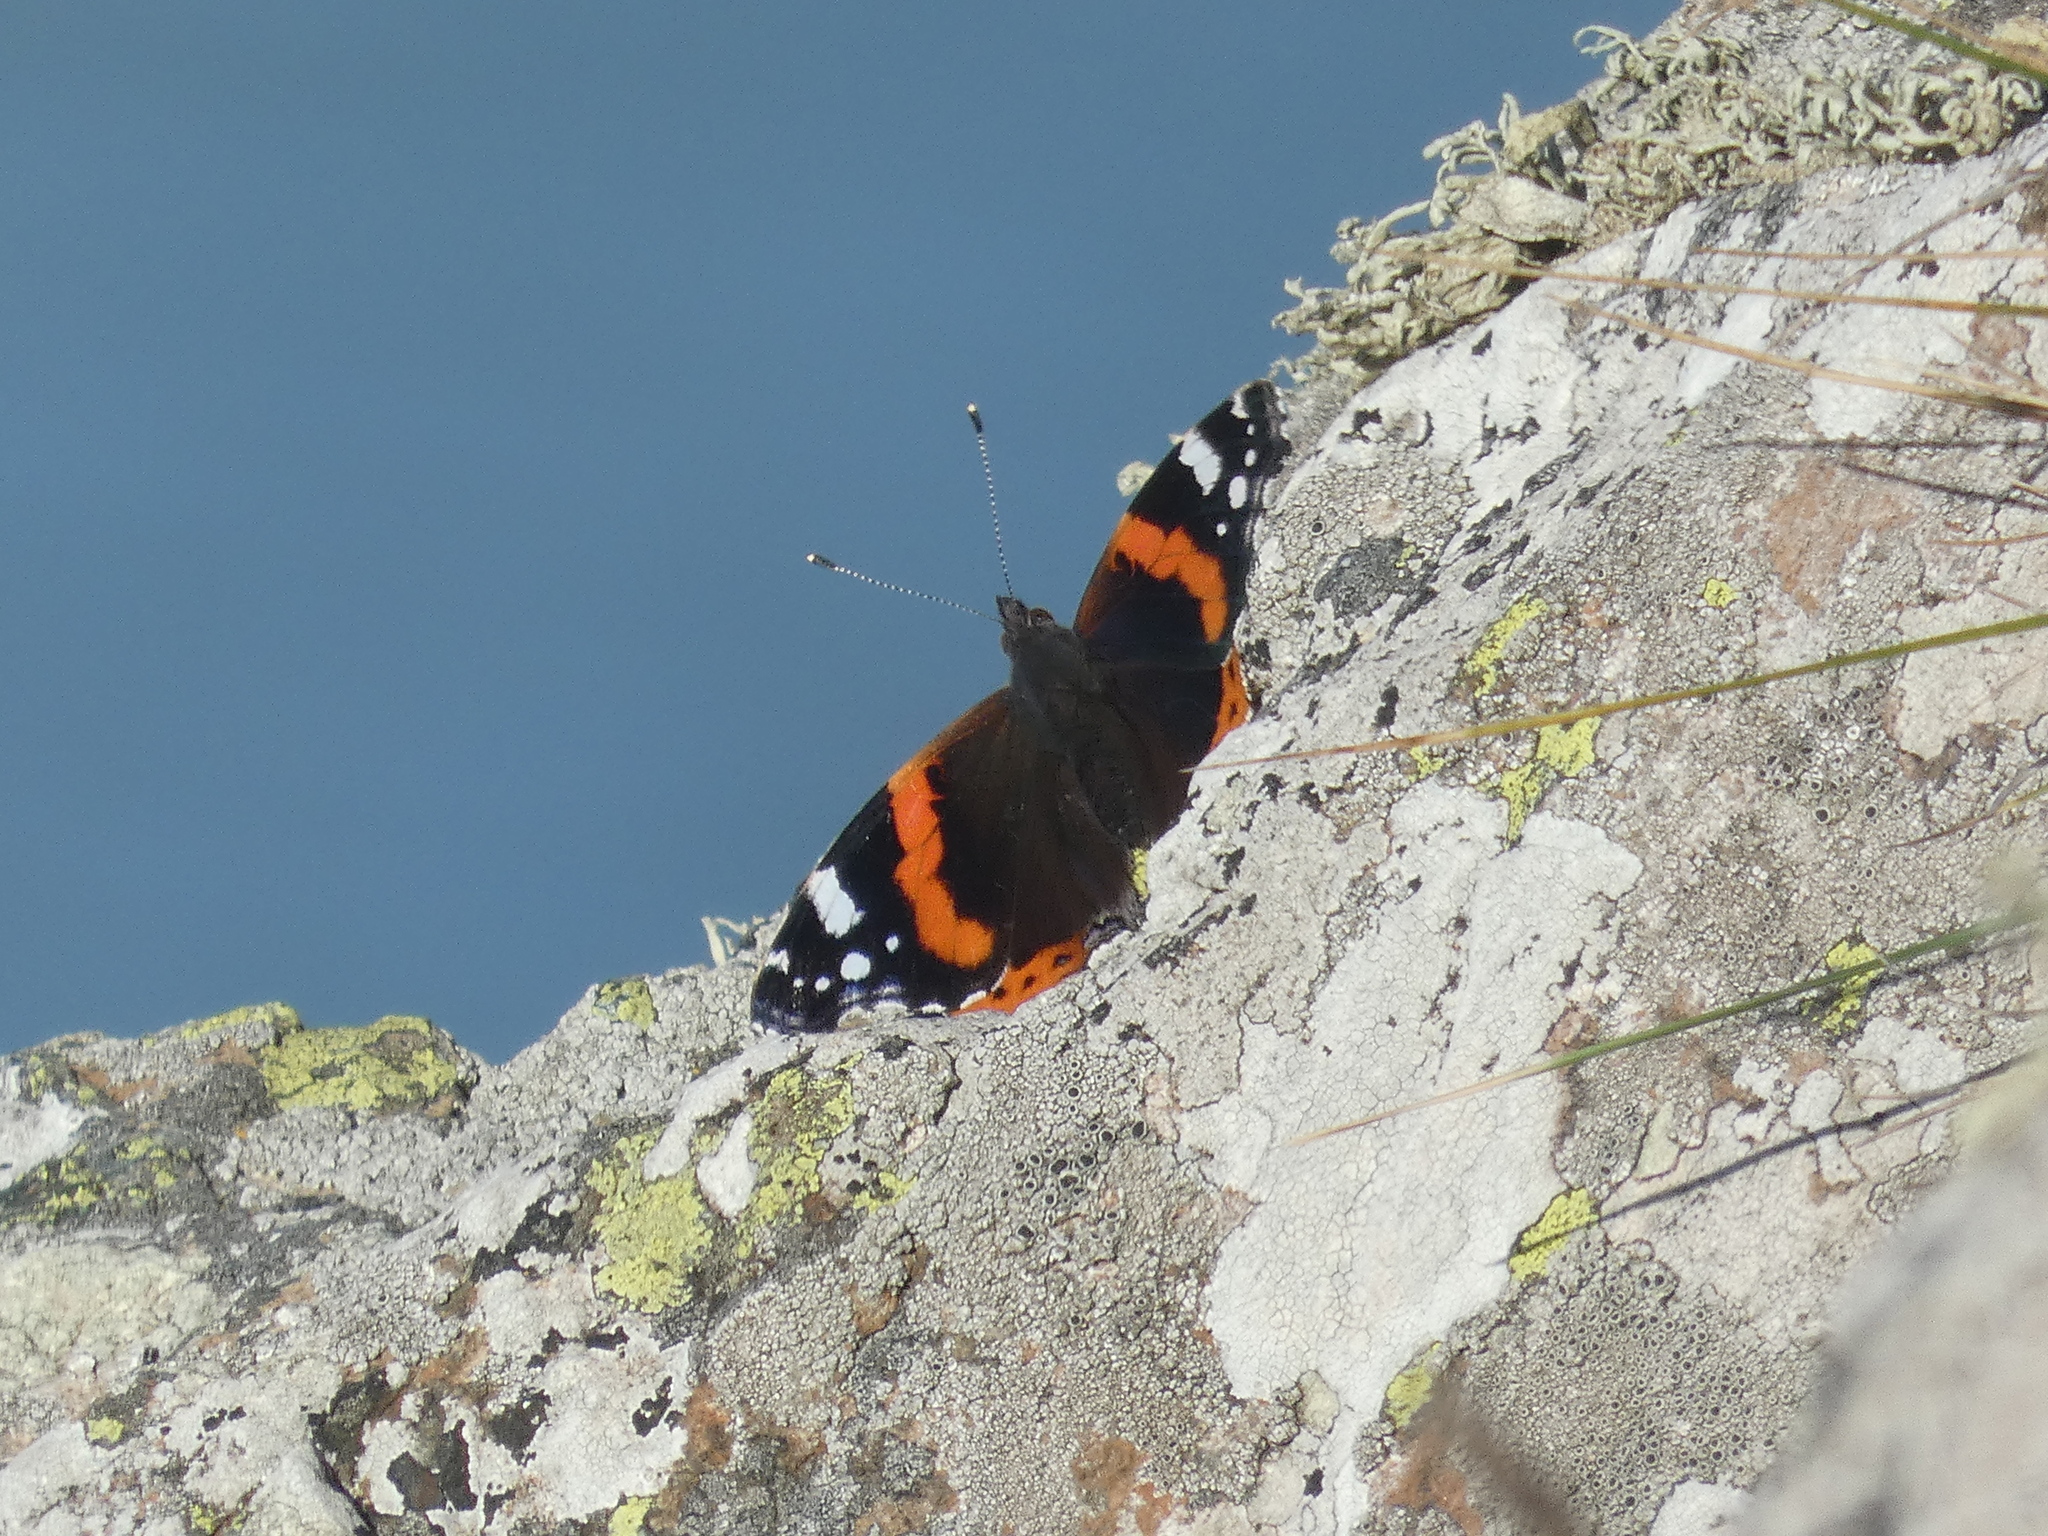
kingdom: Animalia
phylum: Arthropoda
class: Insecta
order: Lepidoptera
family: Nymphalidae
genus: Vanessa
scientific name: Vanessa atalanta
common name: Red admiral
